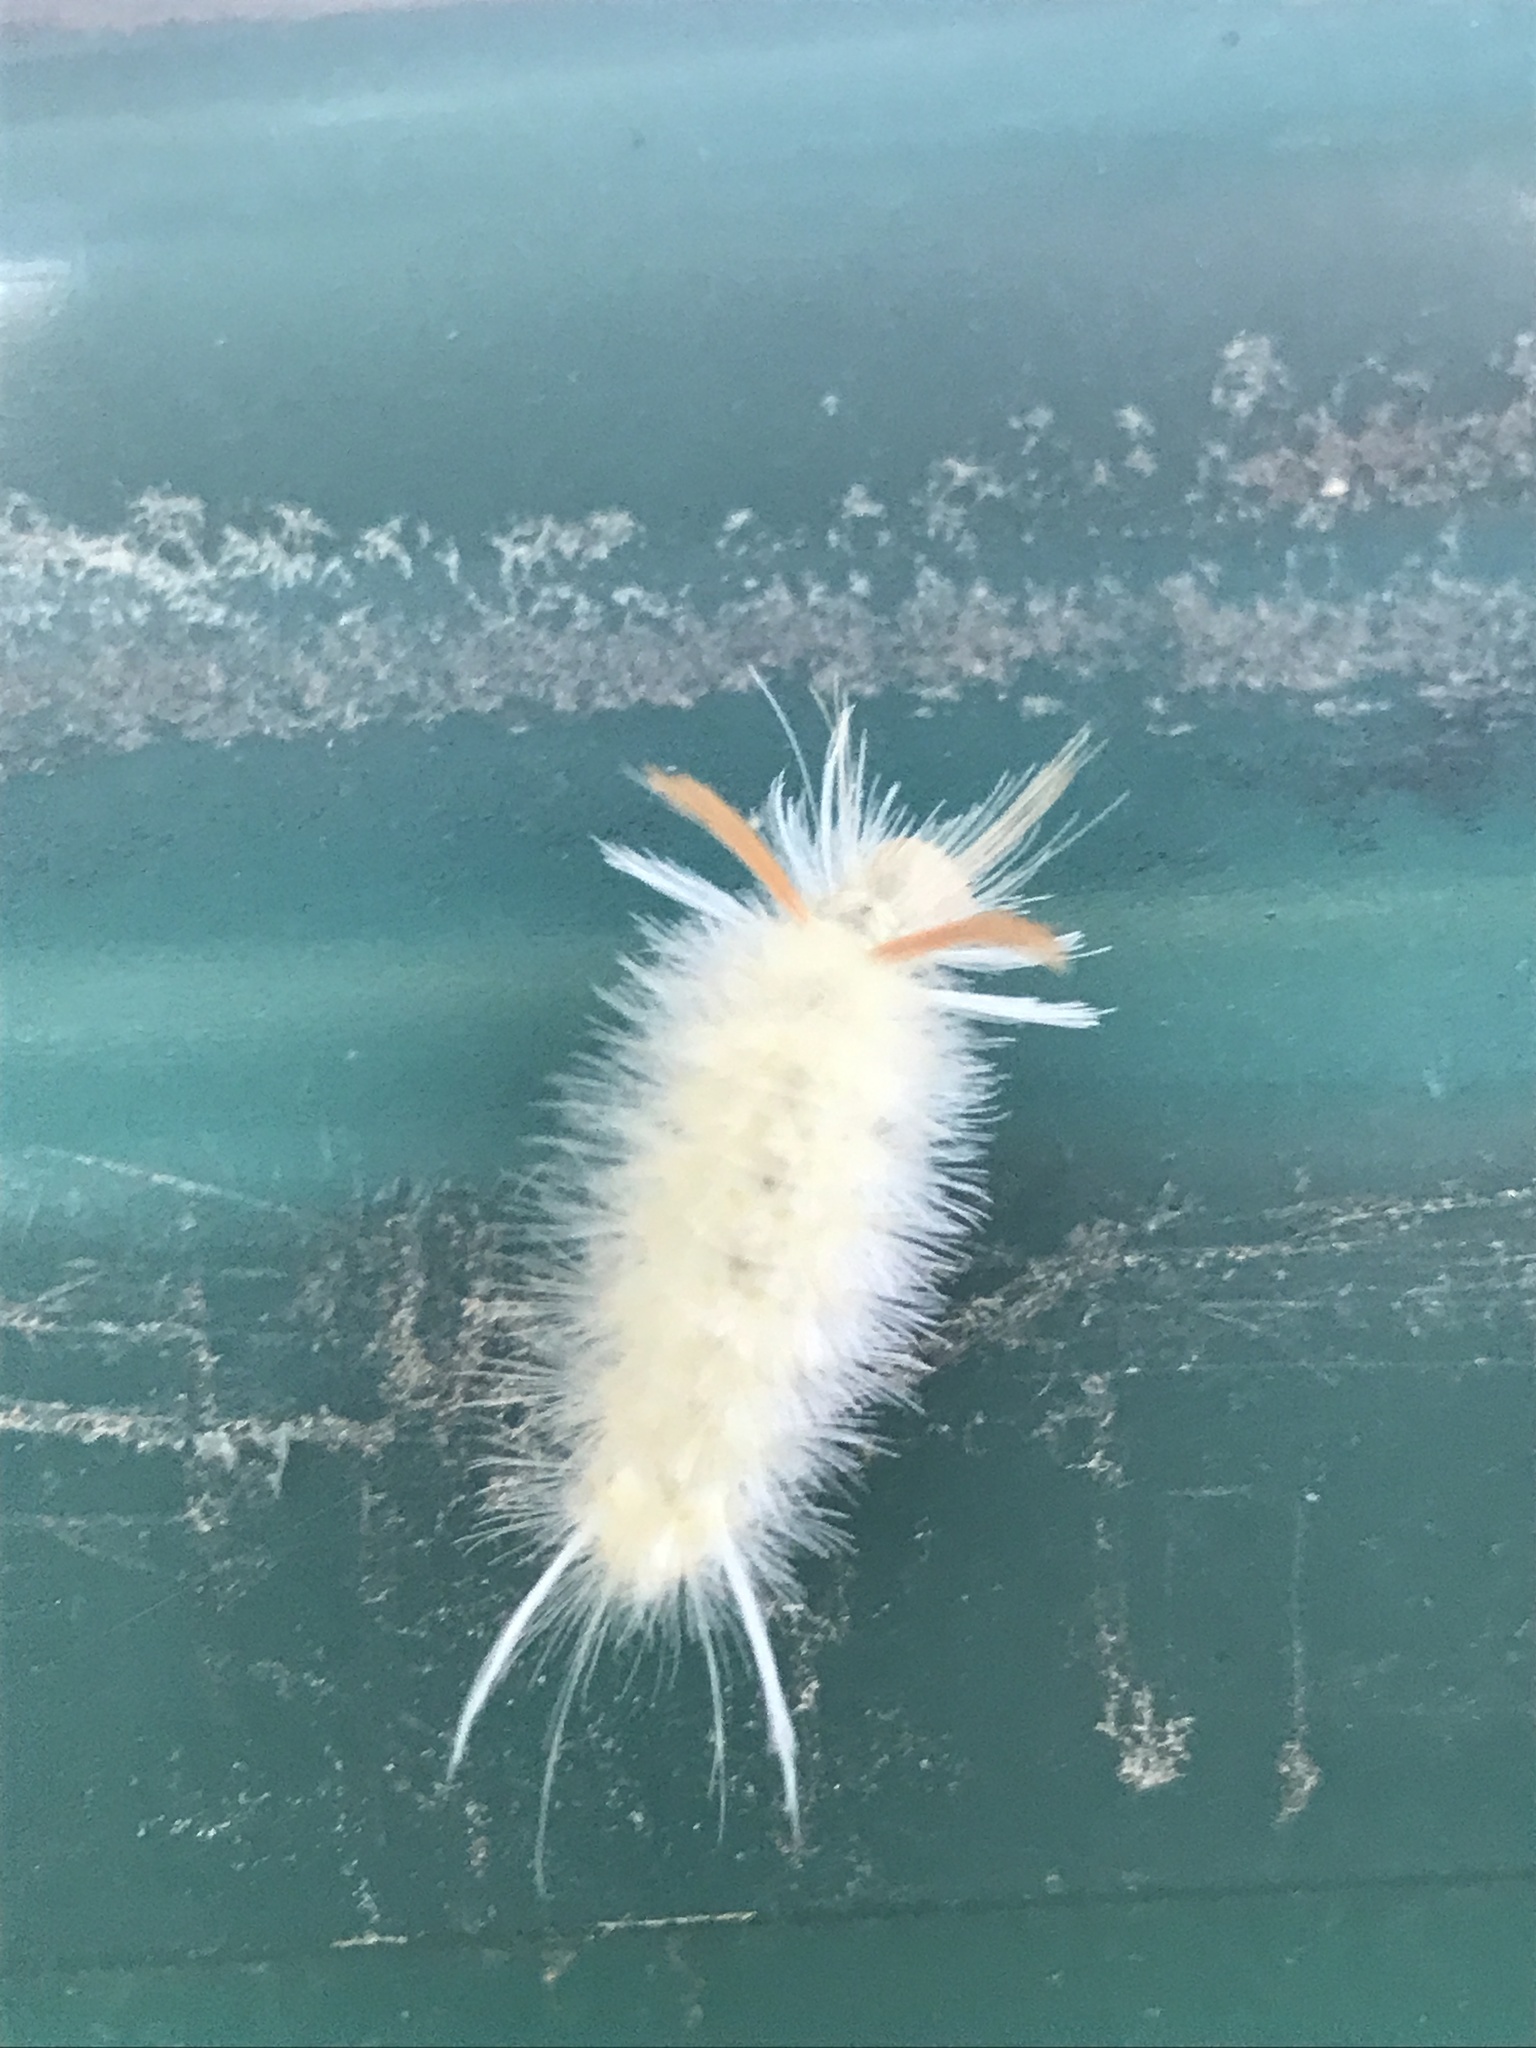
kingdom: Animalia
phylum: Arthropoda
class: Insecta
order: Lepidoptera
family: Erebidae
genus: Halysidota
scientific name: Halysidota harrisii
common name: Sycamore tussock moth
